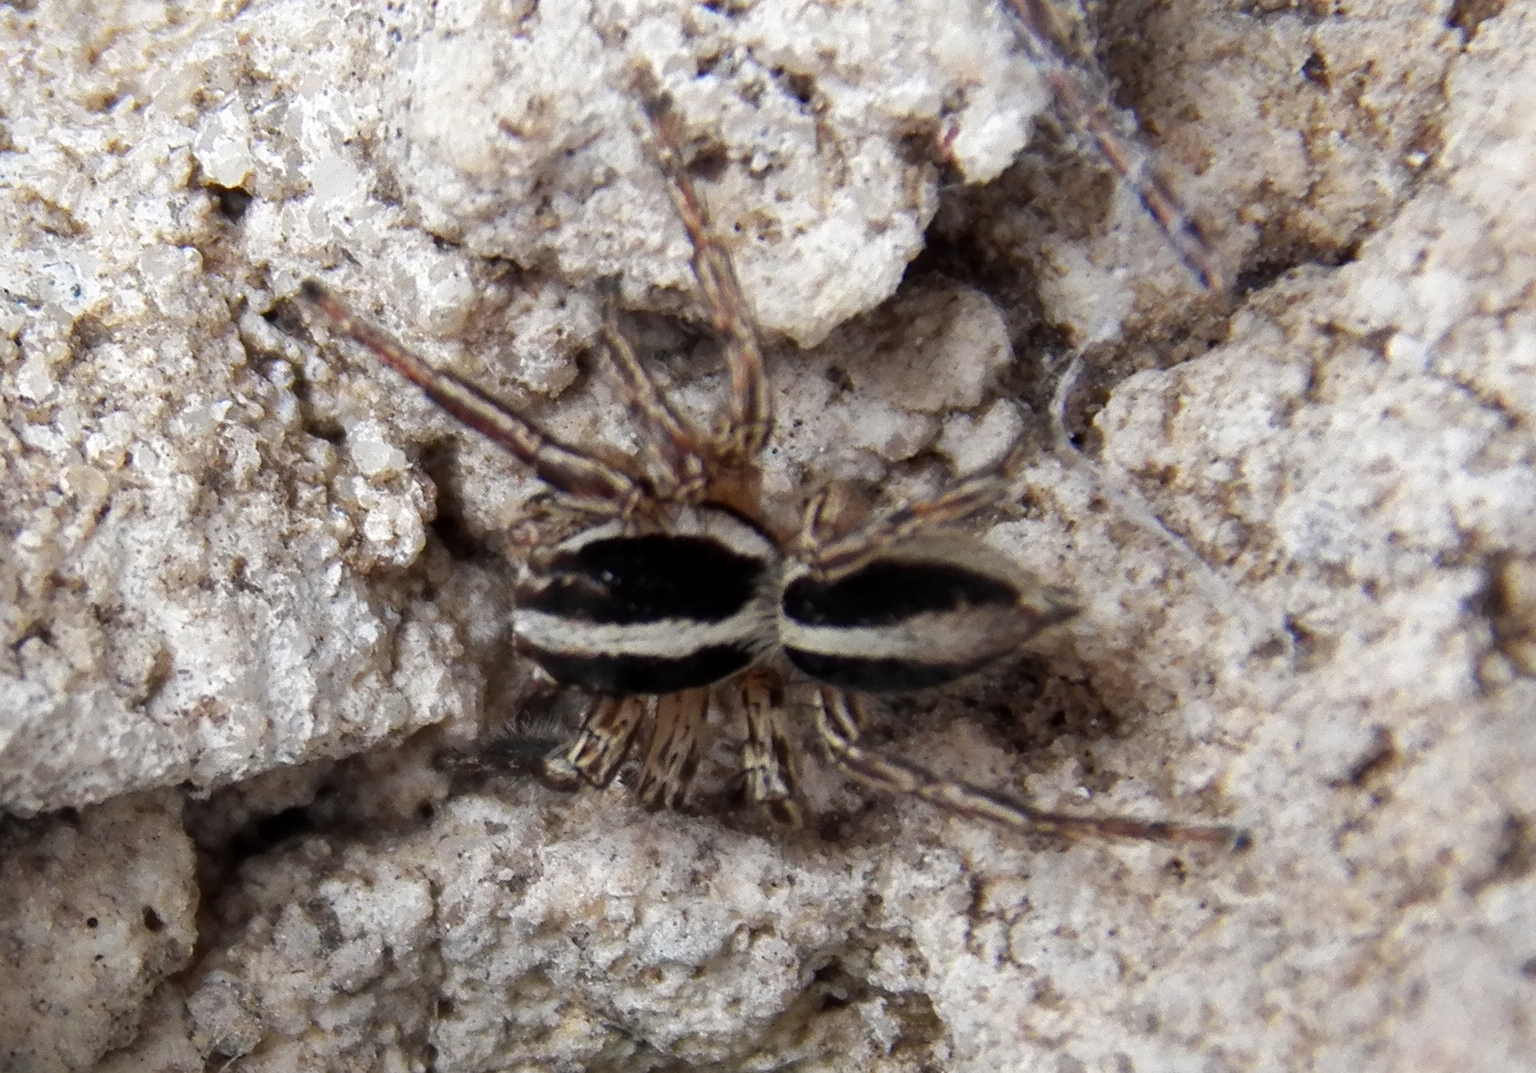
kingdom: Animalia
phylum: Arthropoda
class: Arachnida
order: Araneae
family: Salticidae
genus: Plexippus
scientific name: Plexippus paykulli
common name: Pantropical jumper
